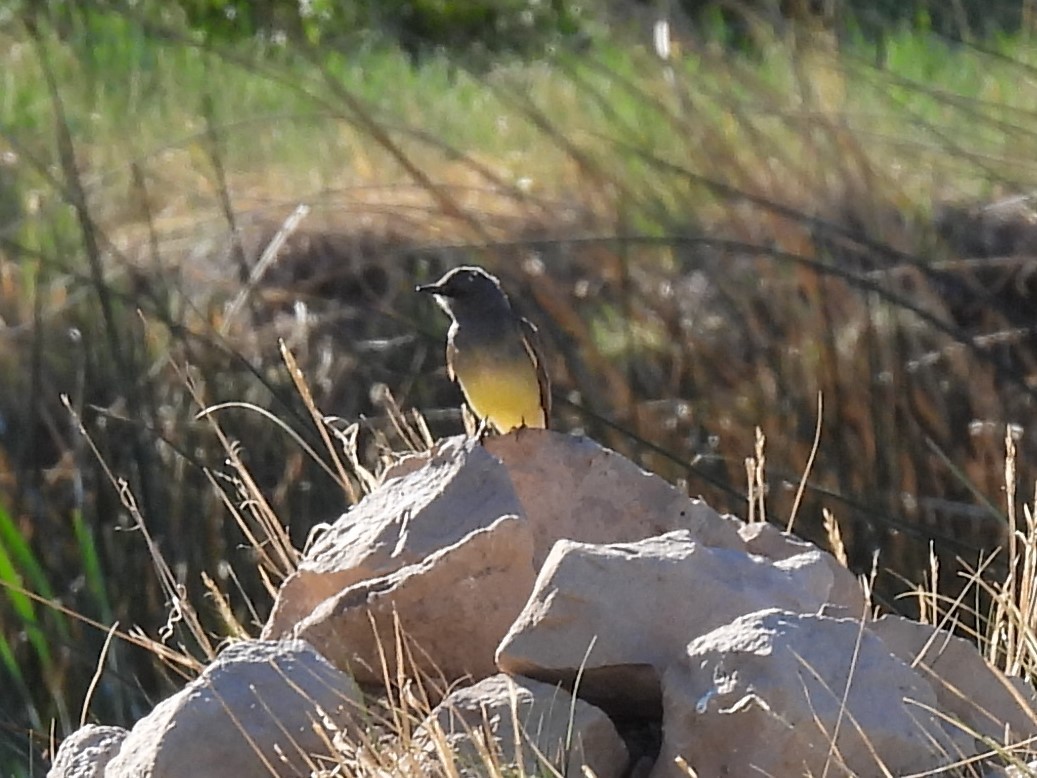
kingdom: Animalia
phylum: Chordata
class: Aves
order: Passeriformes
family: Tyrannidae
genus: Tyrannus
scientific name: Tyrannus vociferans
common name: Cassin's kingbird
